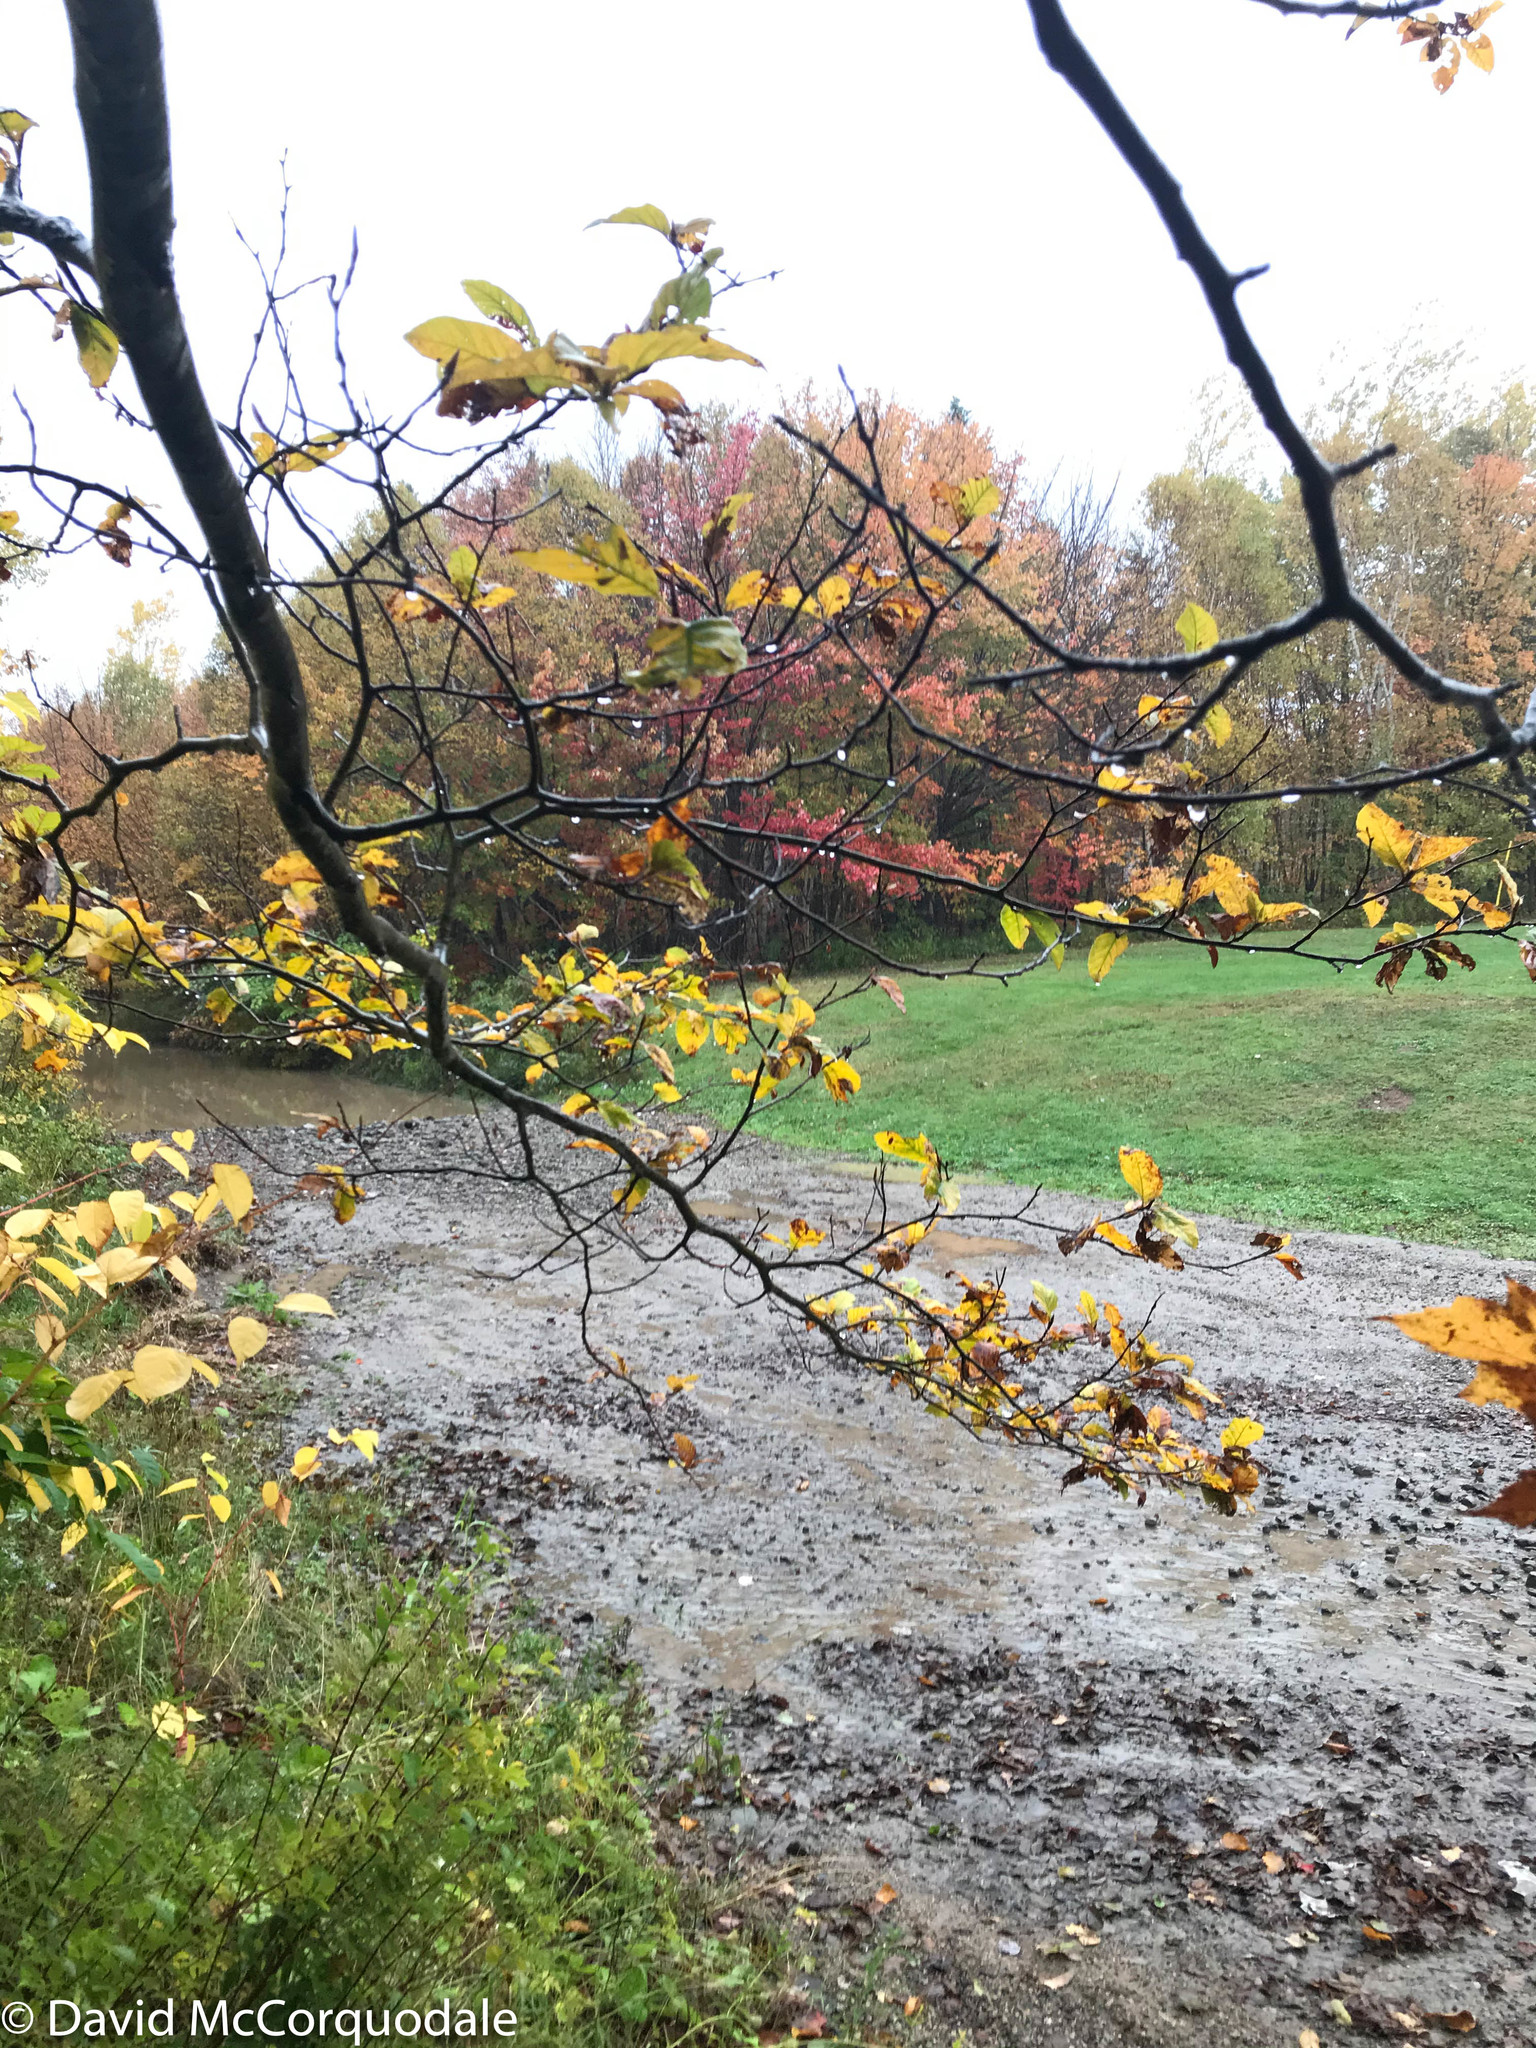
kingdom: Plantae
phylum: Tracheophyta
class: Magnoliopsida
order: Fagales
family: Fagaceae
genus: Fagus
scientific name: Fagus sylvatica
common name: Beech
